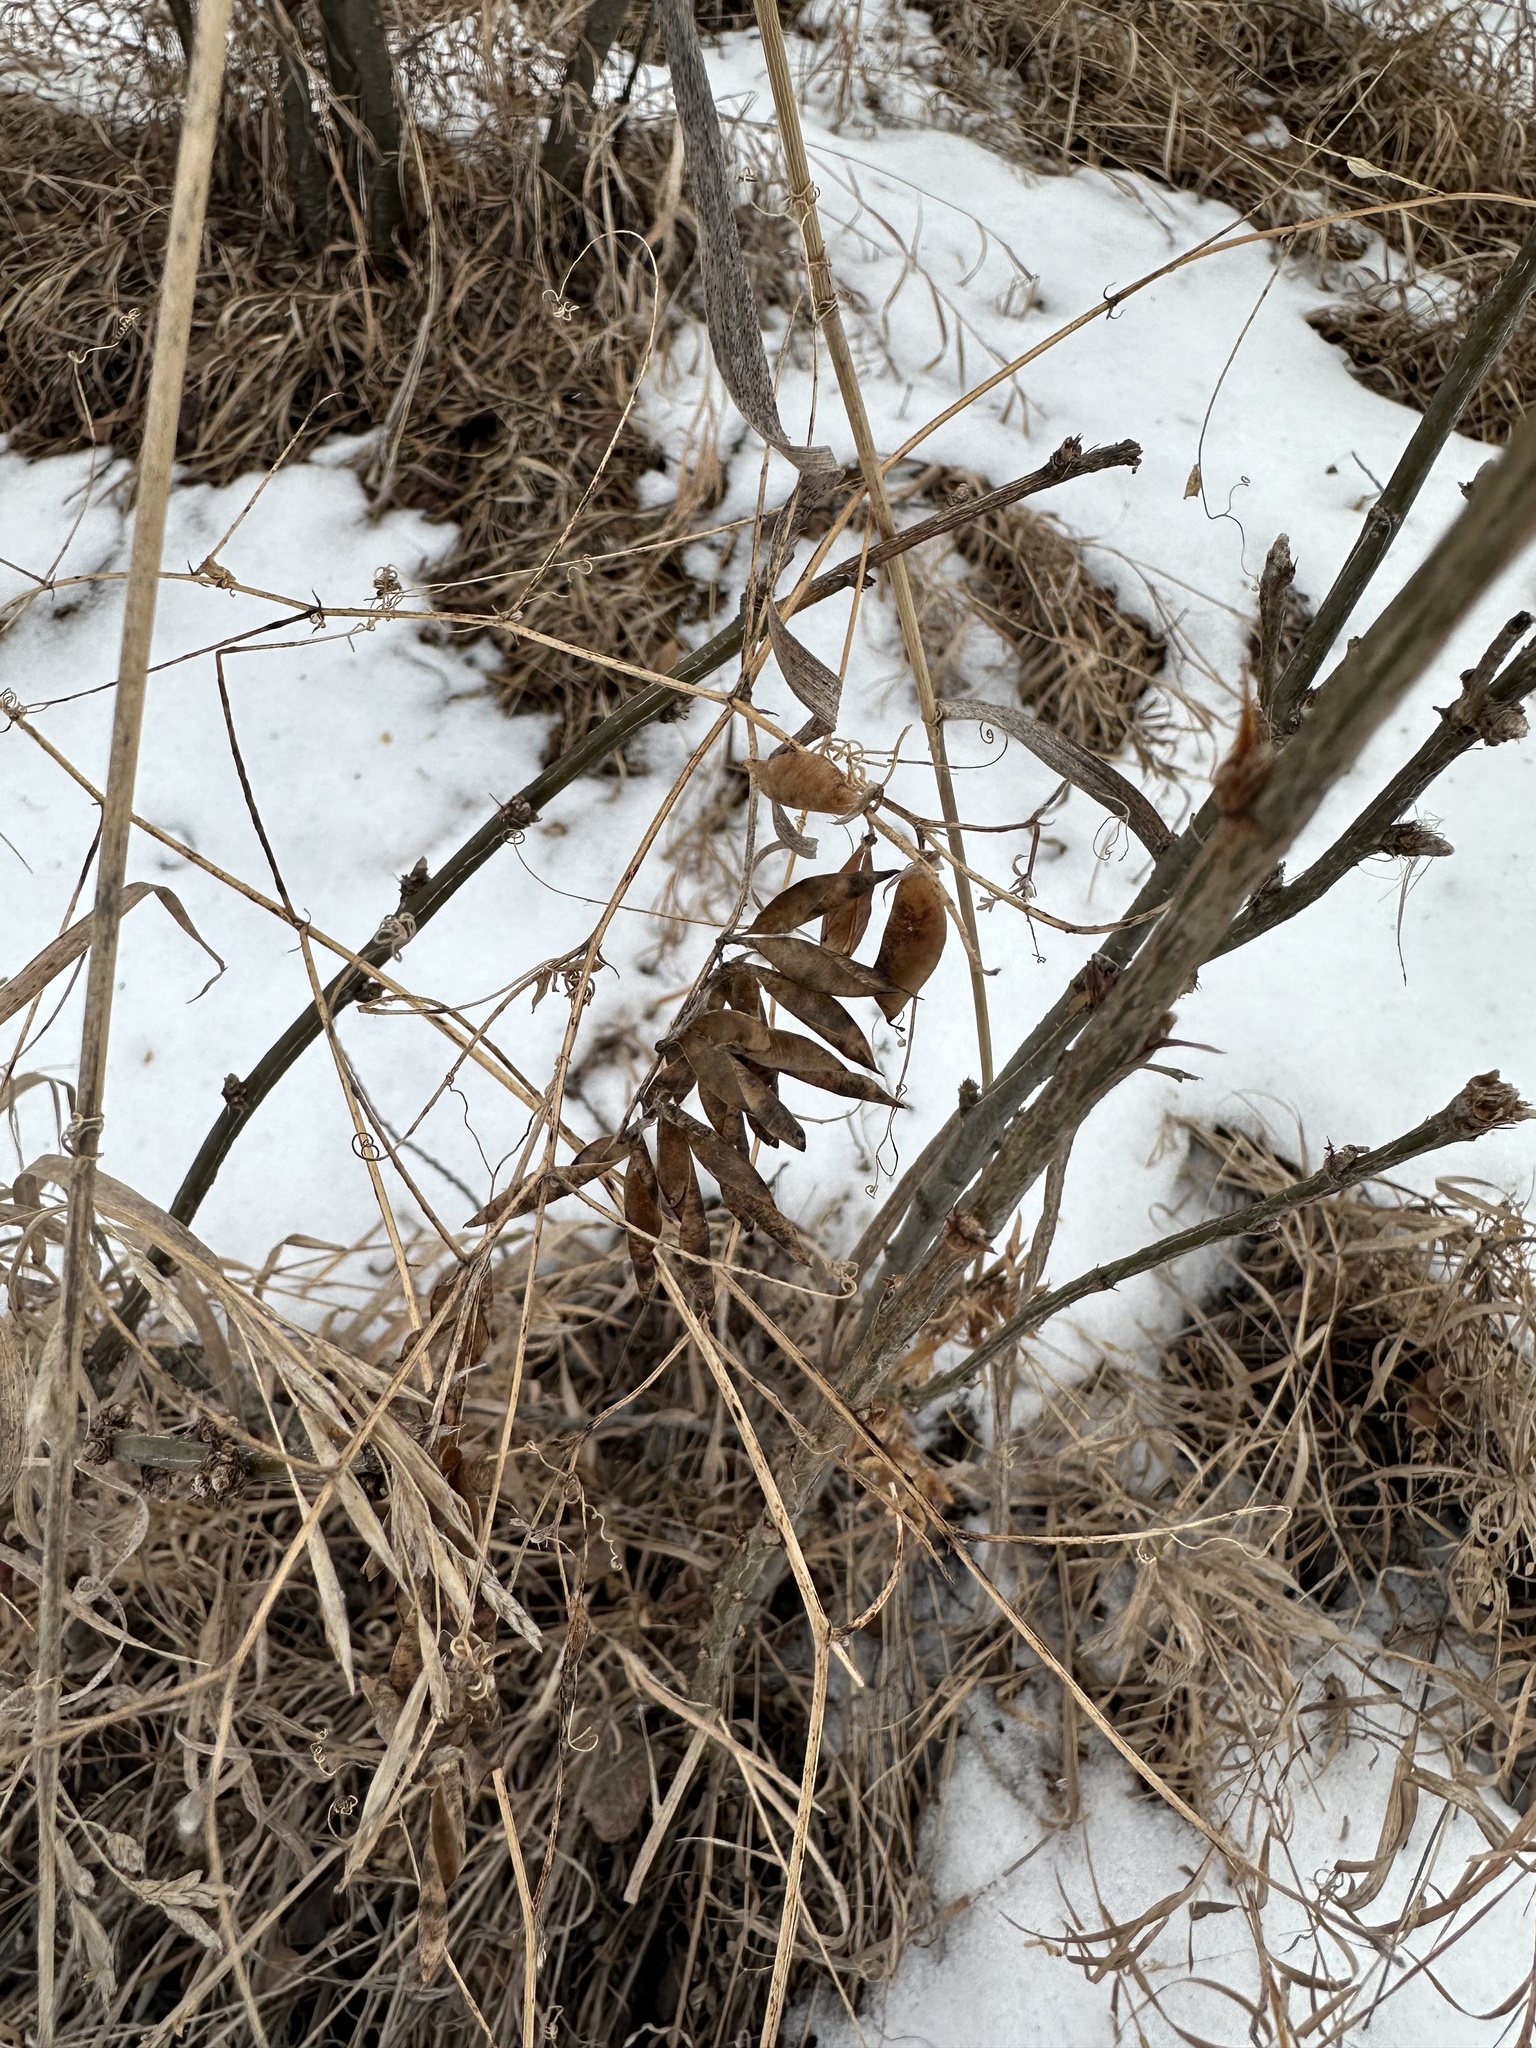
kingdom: Plantae
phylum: Tracheophyta
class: Magnoliopsida
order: Fabales
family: Fabaceae
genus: Vicia
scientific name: Vicia cracca
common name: Bird vetch
